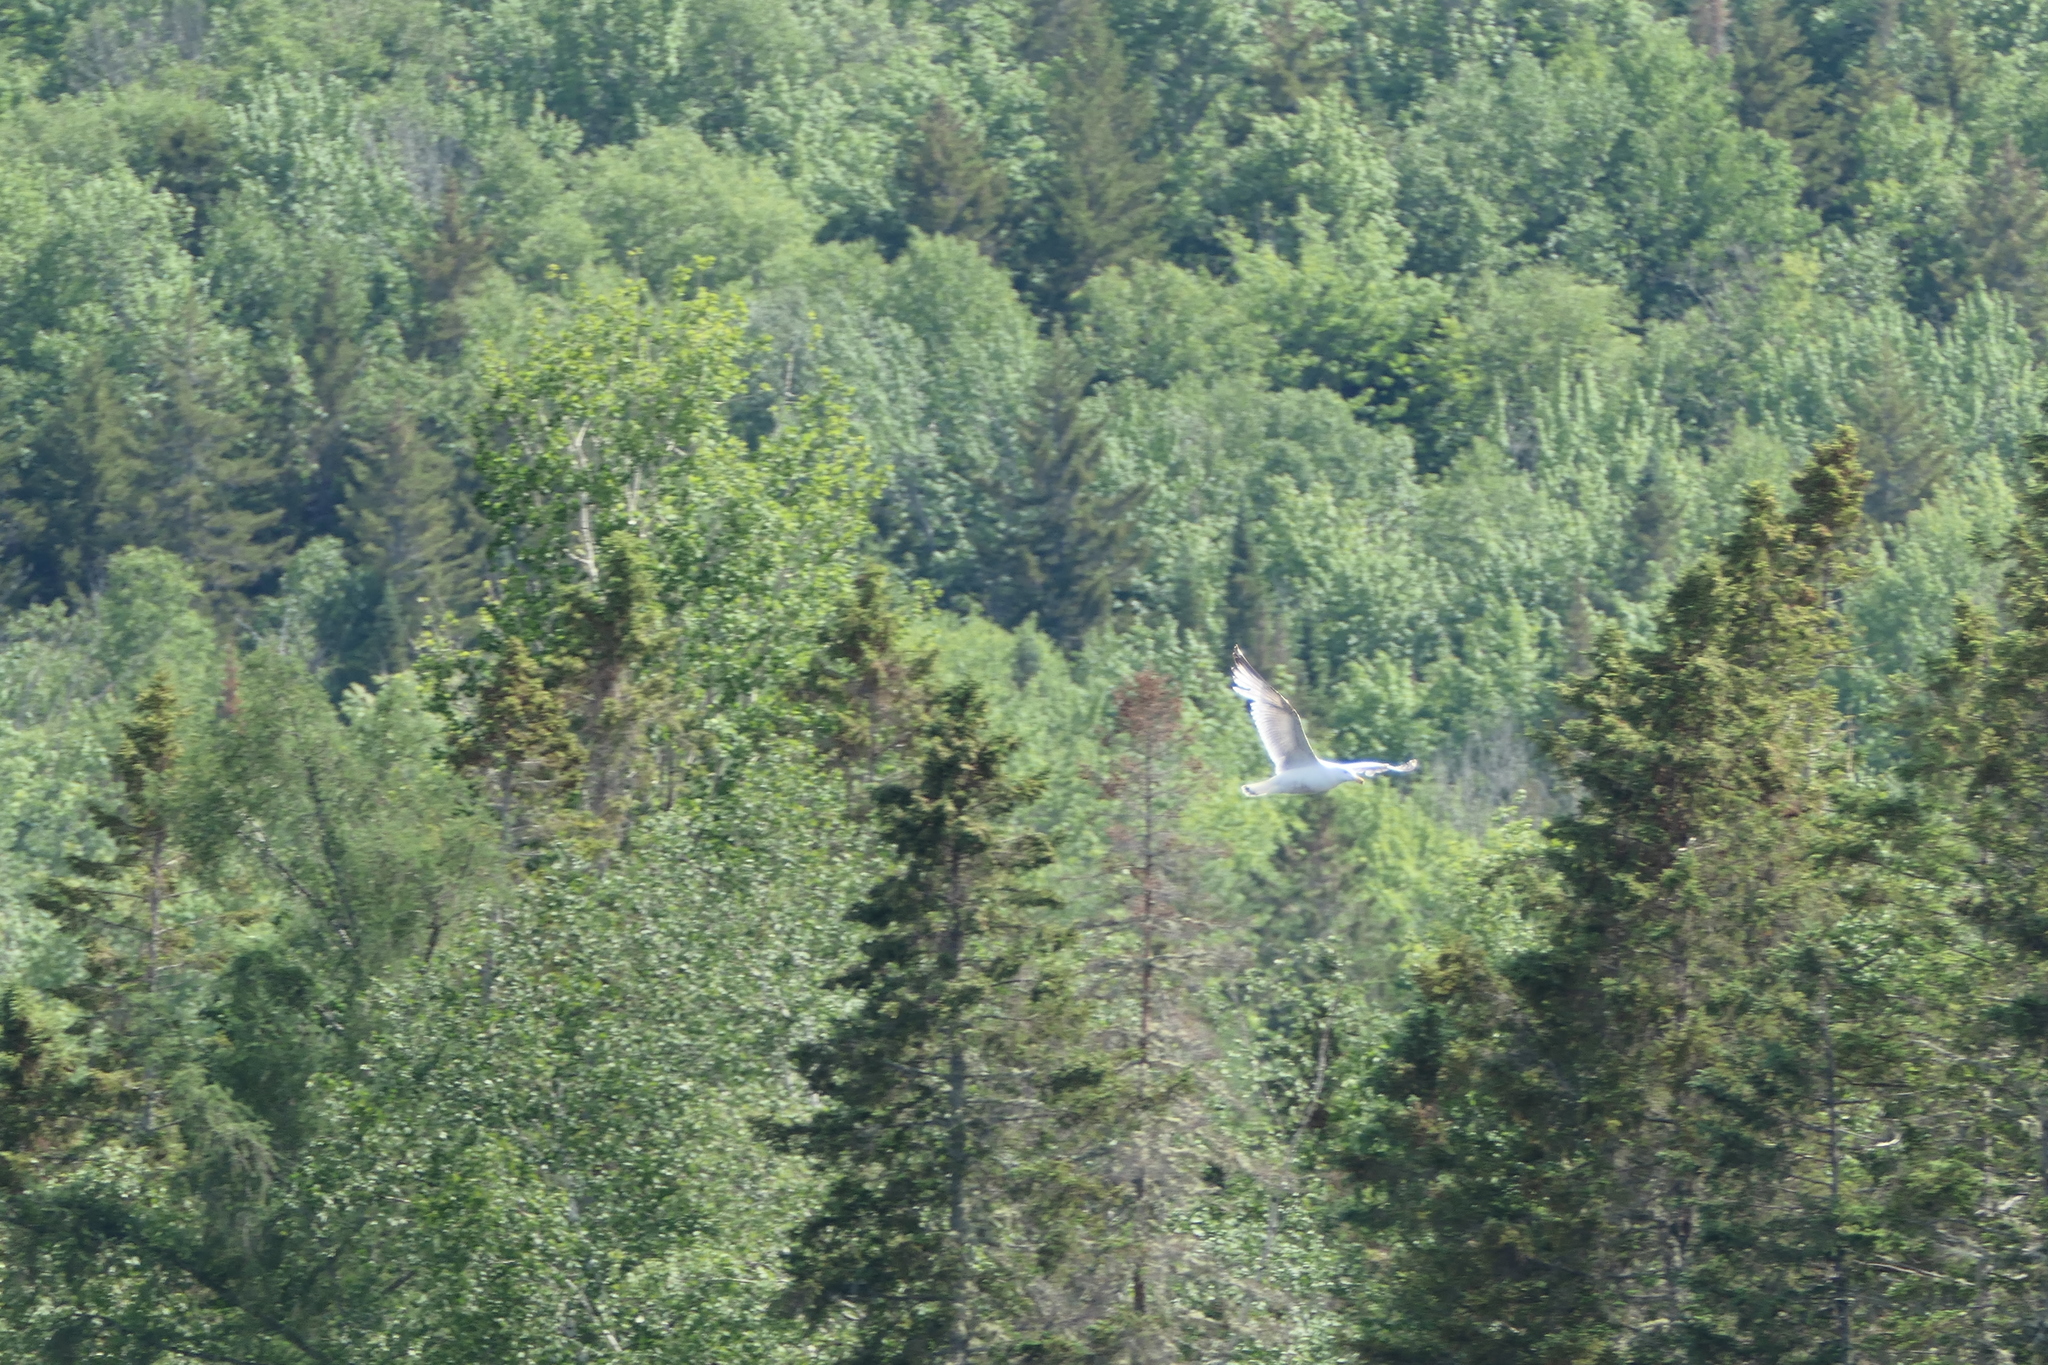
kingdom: Animalia
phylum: Chordata
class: Aves
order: Charadriiformes
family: Laridae
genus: Larus
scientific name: Larus argentatus
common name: Herring gull
